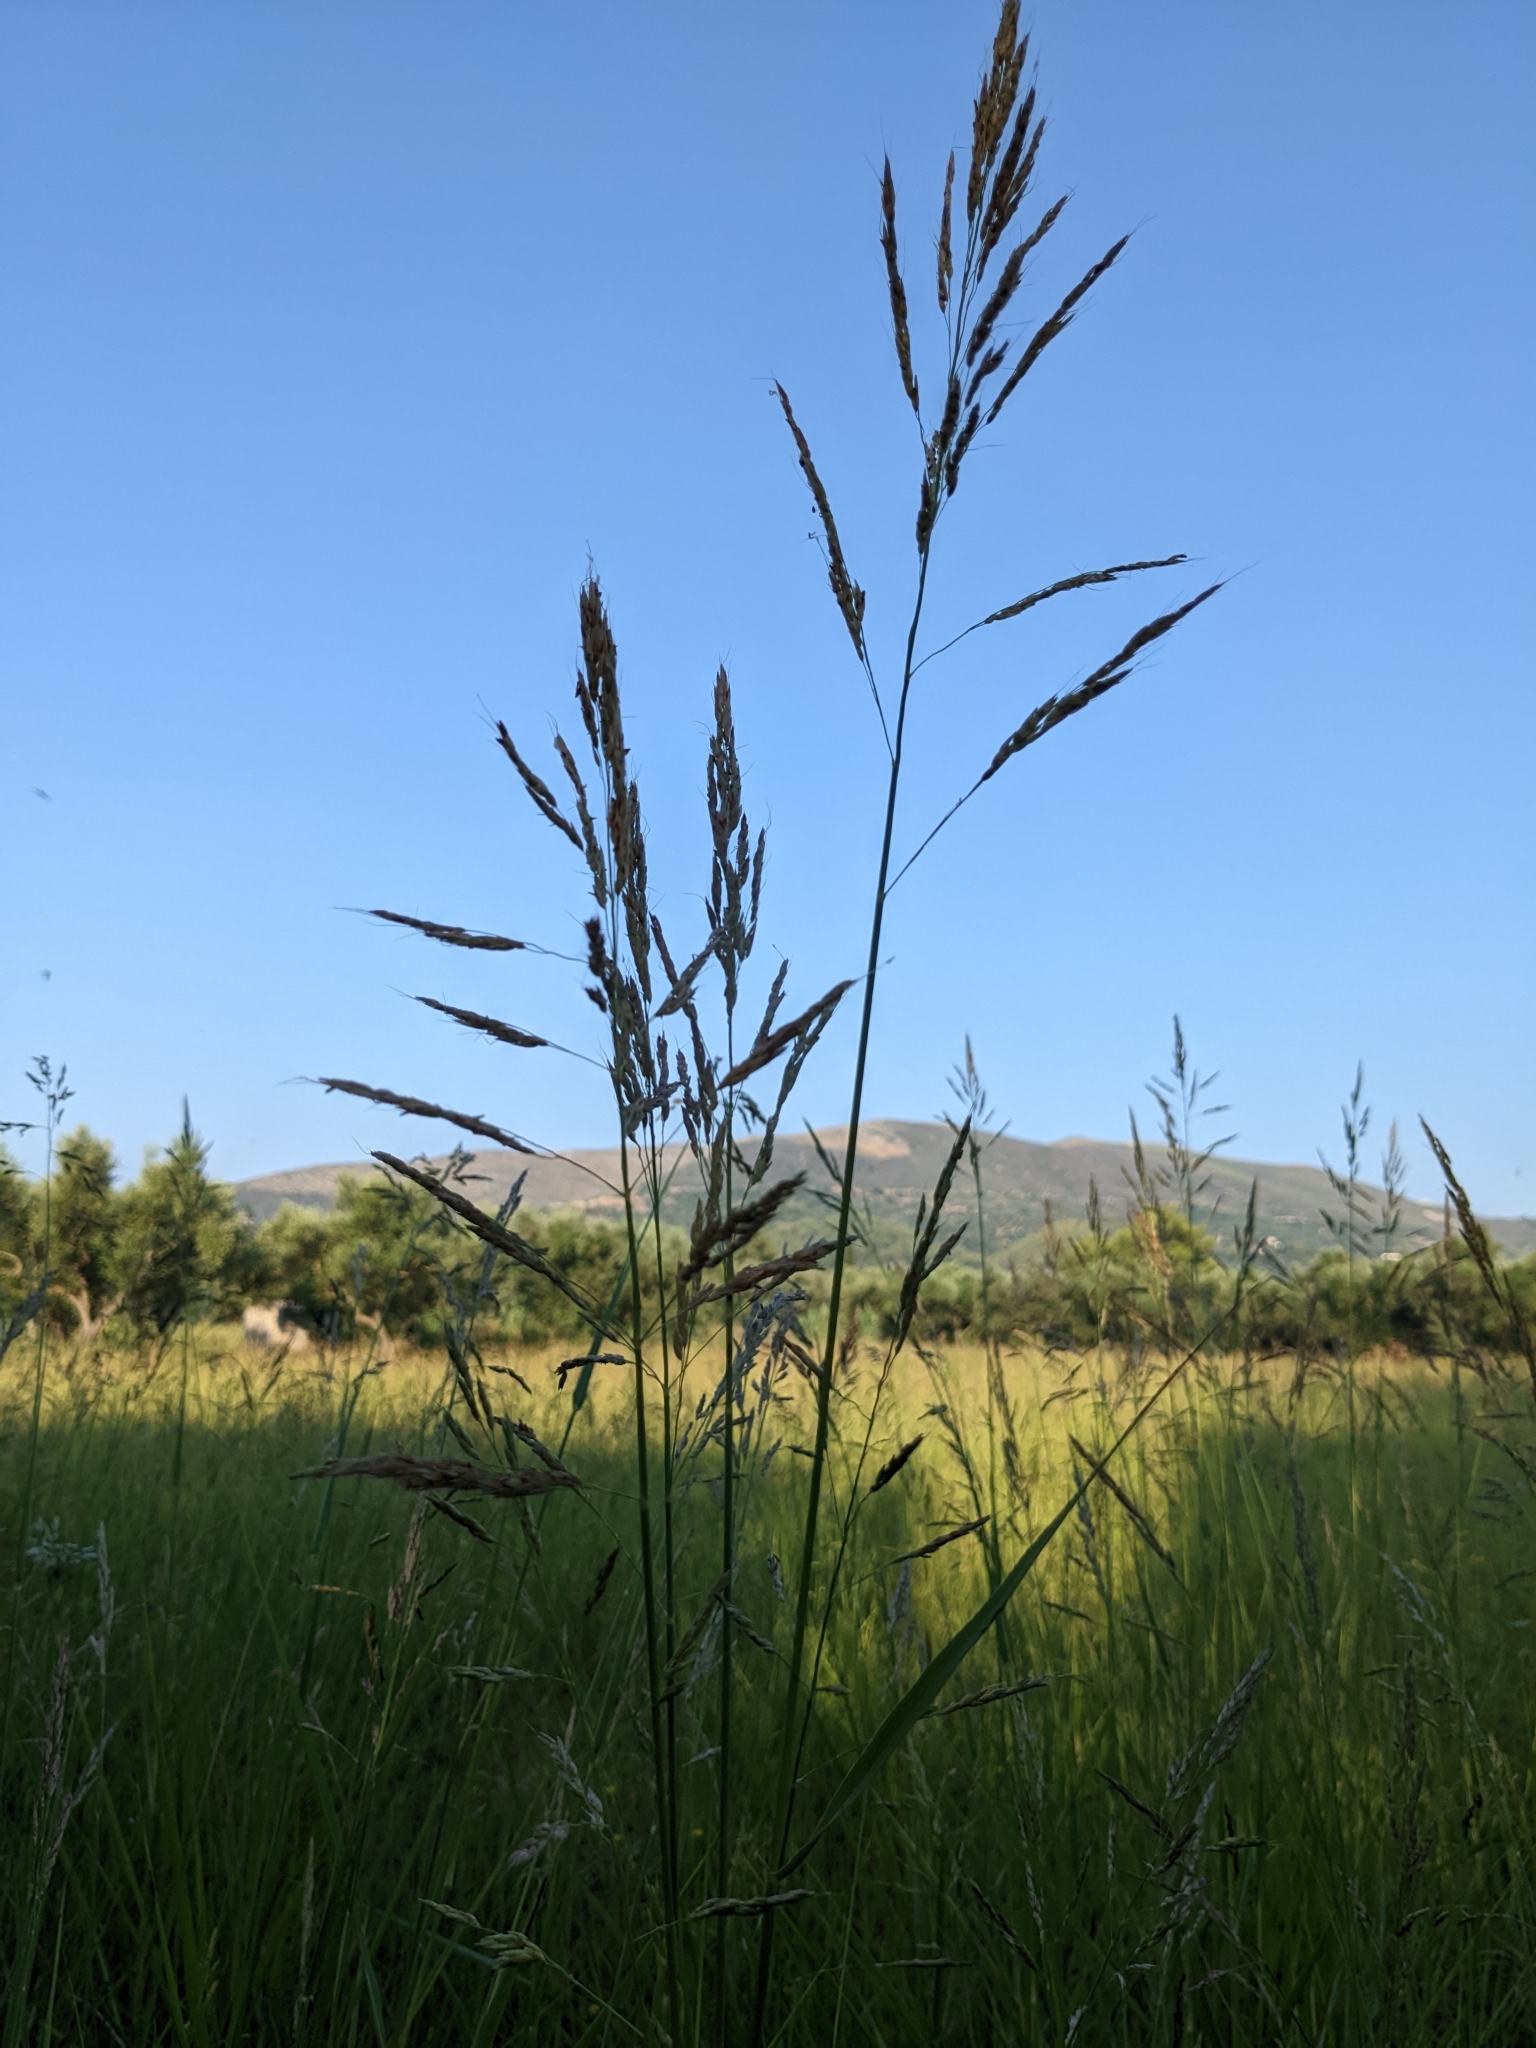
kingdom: Plantae
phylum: Tracheophyta
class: Liliopsida
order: Poales
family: Poaceae
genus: Sorghum
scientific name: Sorghum halepense
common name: Johnson-grass
